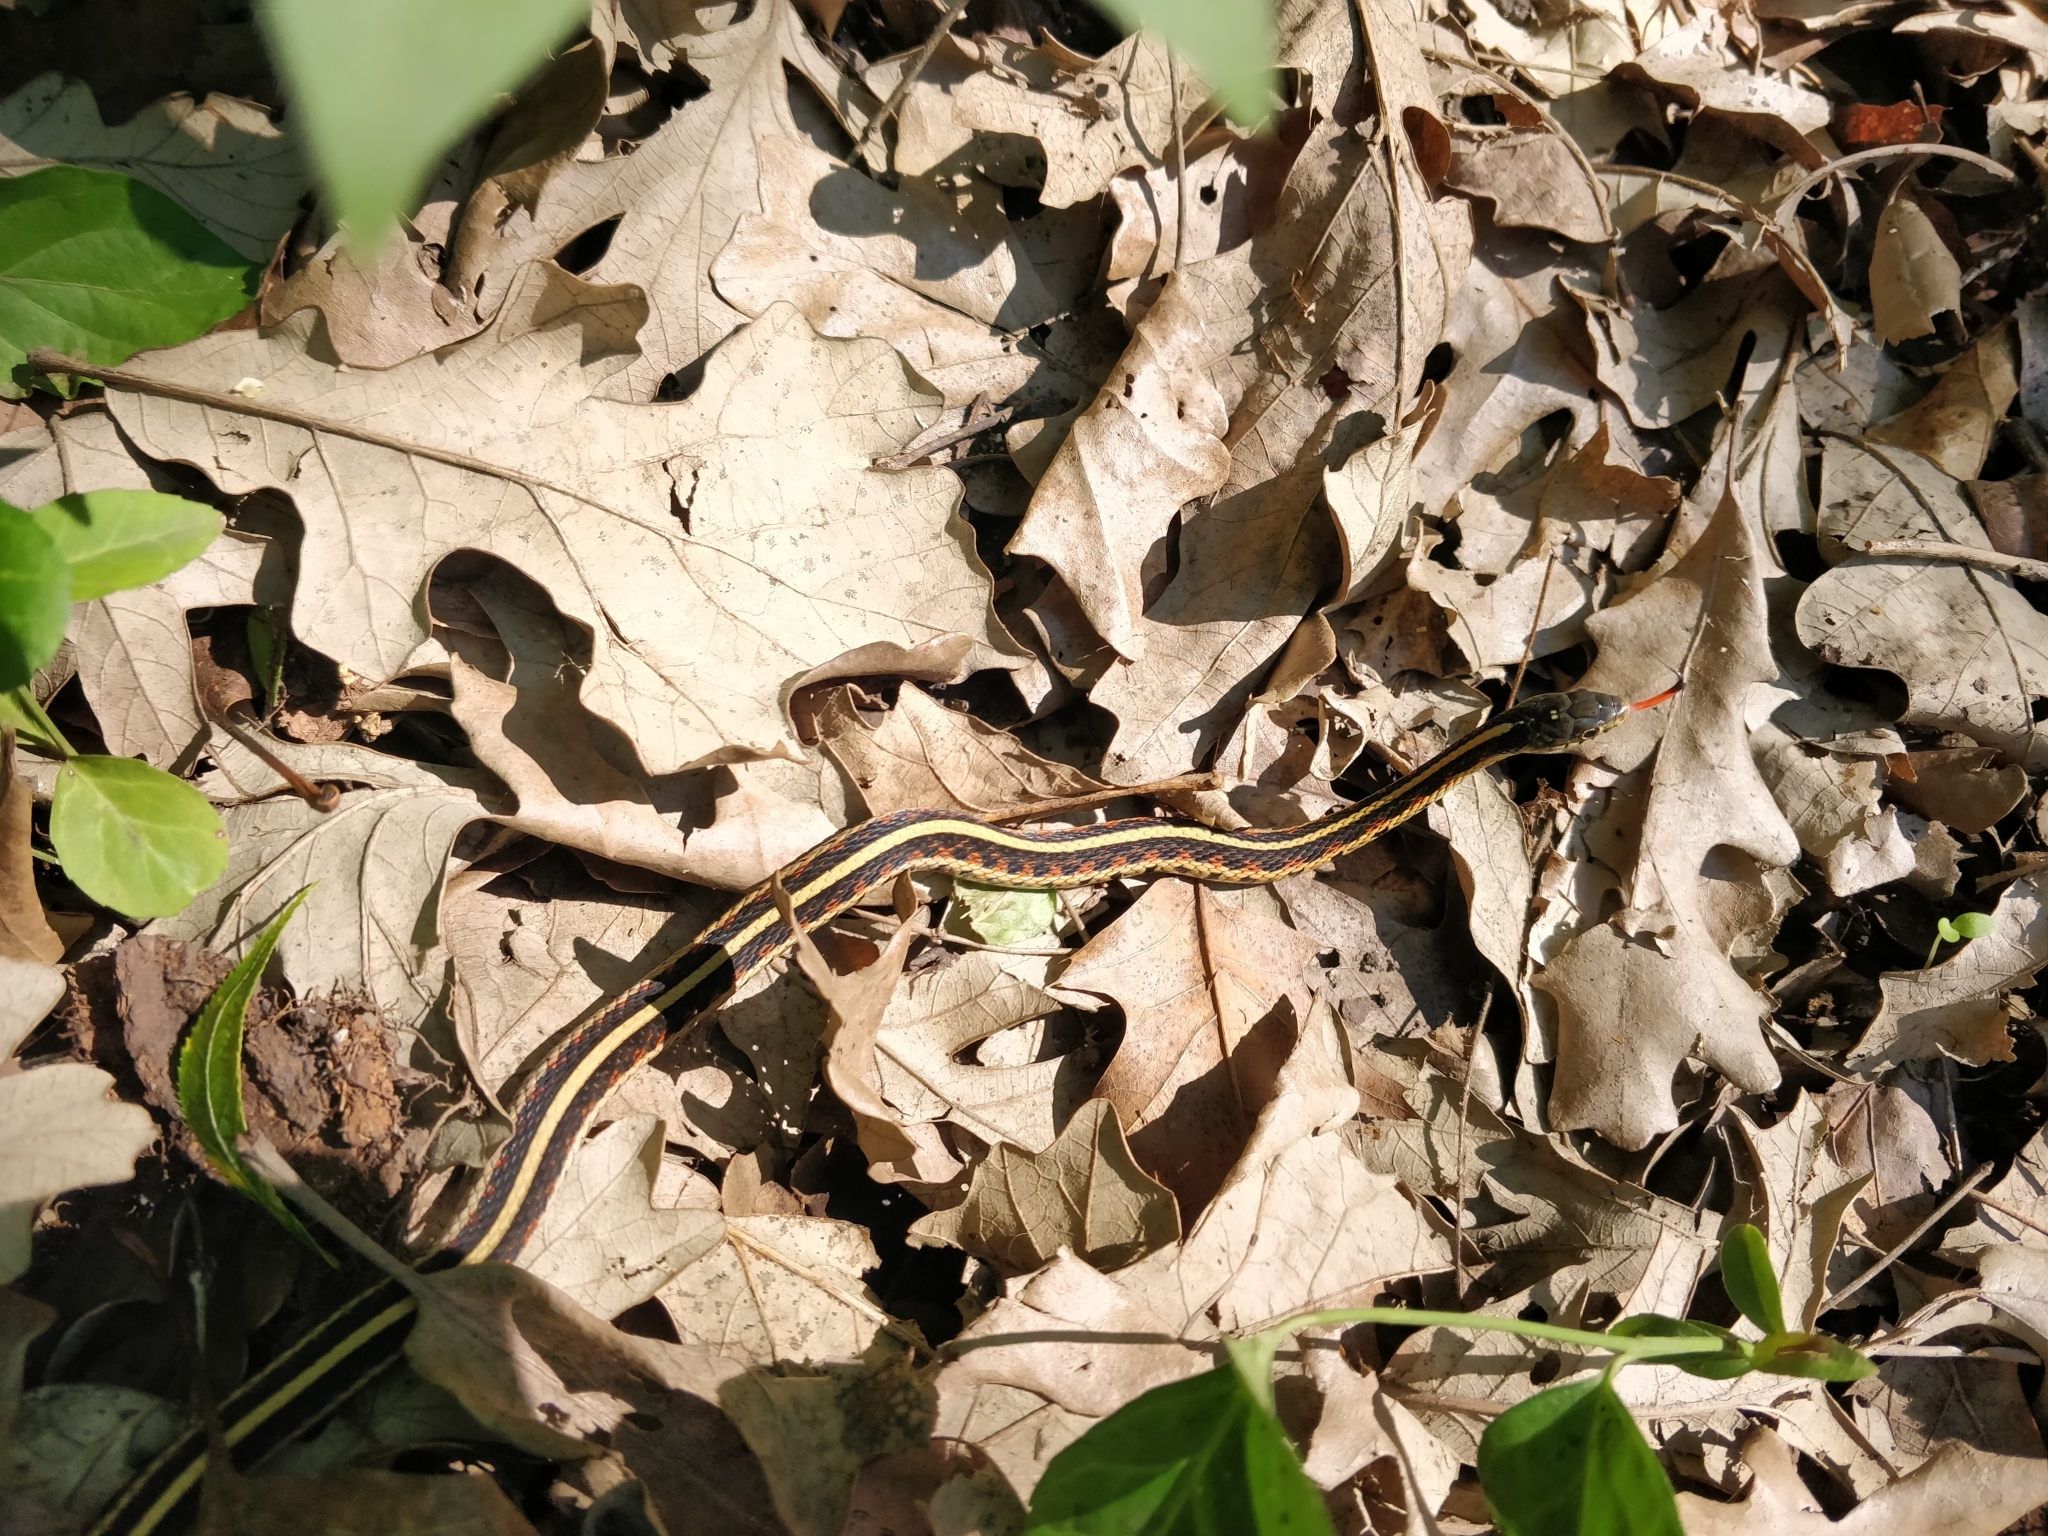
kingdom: Animalia
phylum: Chordata
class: Squamata
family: Colubridae
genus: Thamnophis
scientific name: Thamnophis sirtalis
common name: Common garter snake
